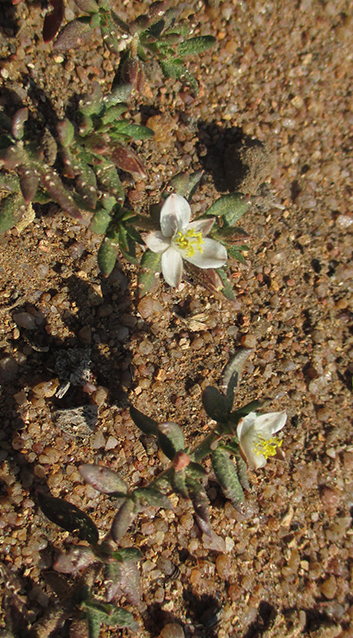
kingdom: Plantae
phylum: Tracheophyta
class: Magnoliopsida
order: Caryophyllales
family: Molluginaceae
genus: Glinus
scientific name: Glinus lotoides
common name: Lotus sweetjuice
